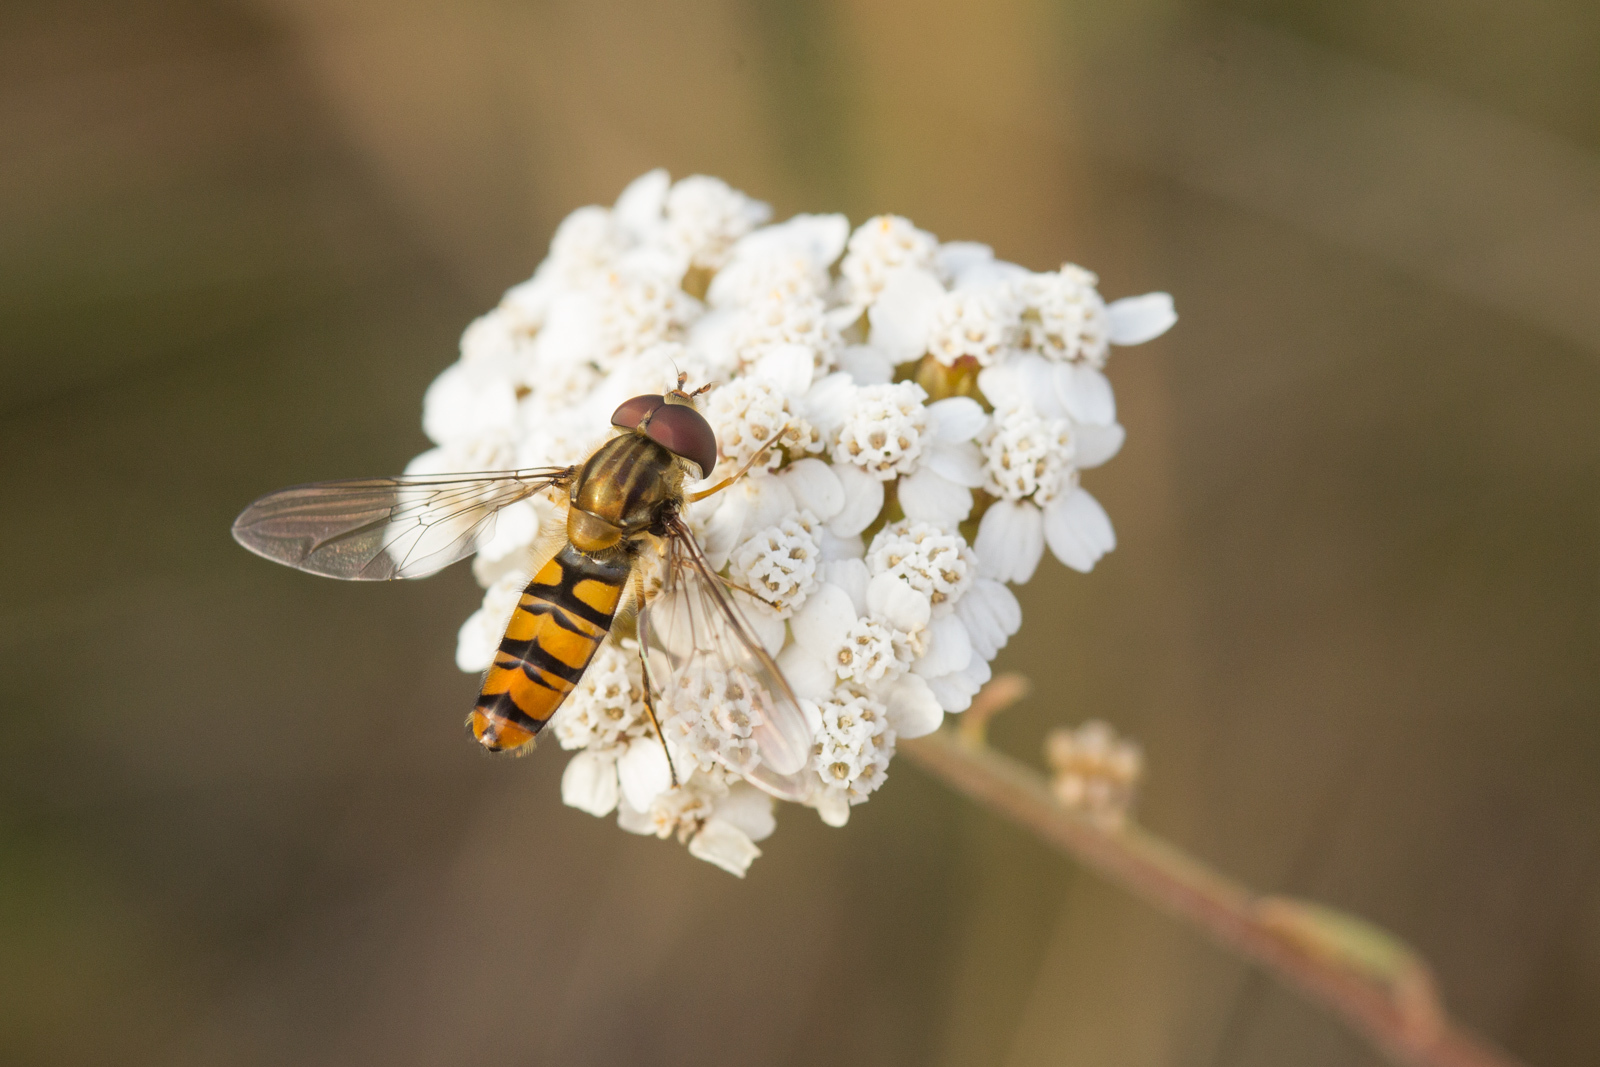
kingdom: Animalia
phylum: Arthropoda
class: Insecta
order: Diptera
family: Syrphidae
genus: Episyrphus
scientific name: Episyrphus balteatus
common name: Marmalade hoverfly
